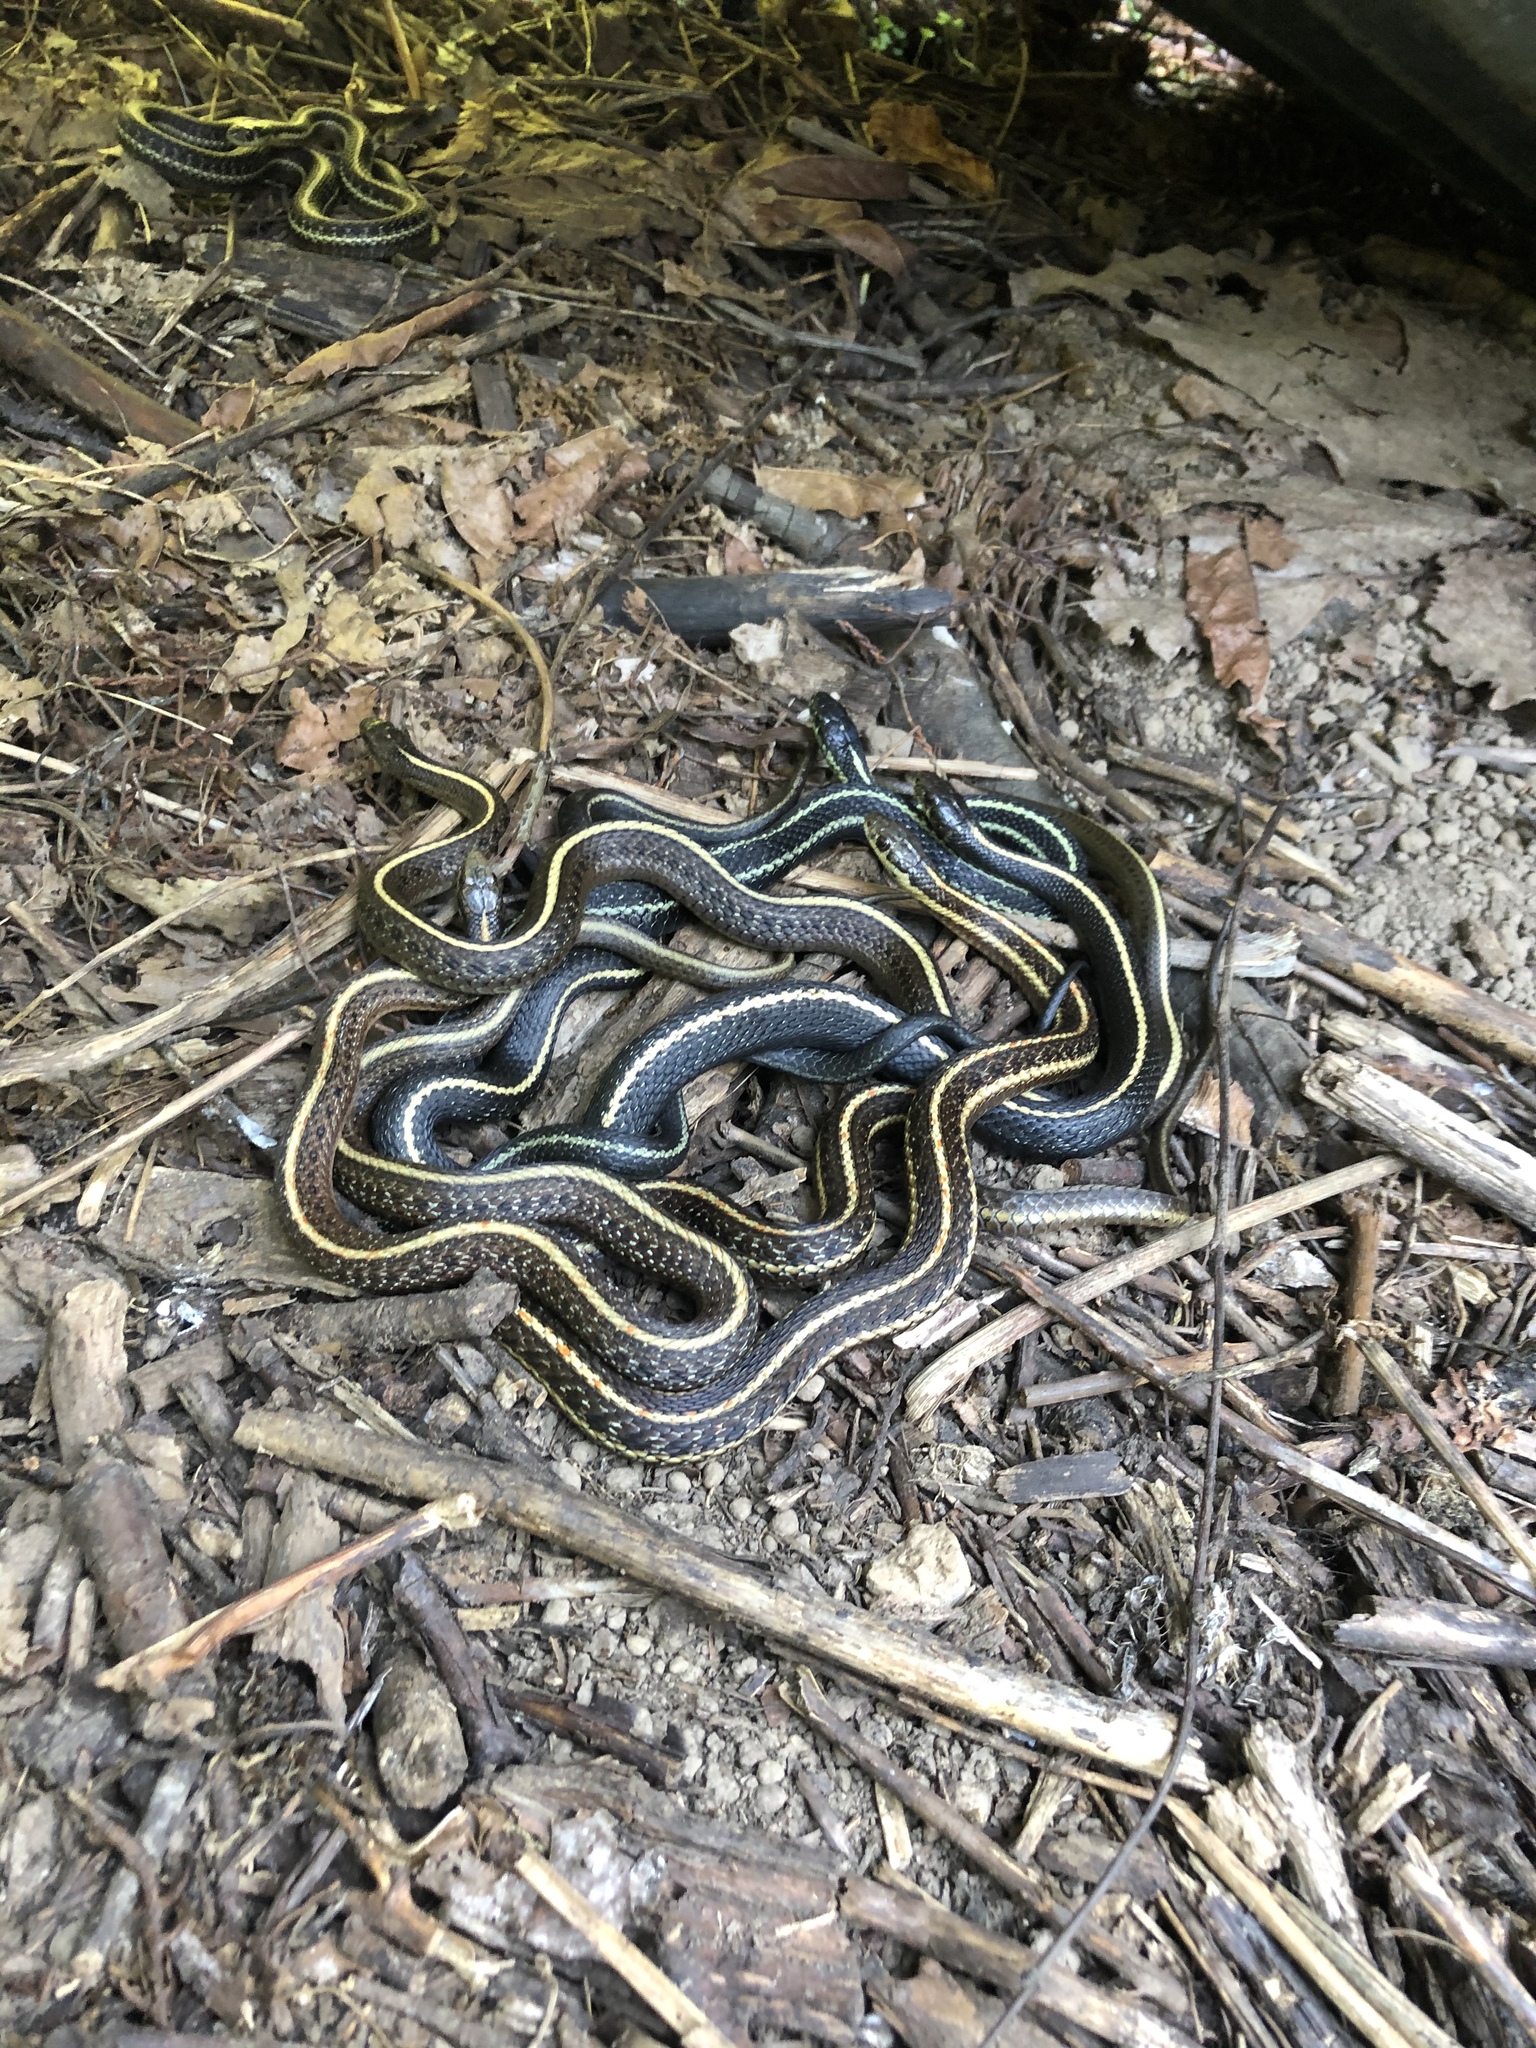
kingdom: Animalia
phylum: Chordata
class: Squamata
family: Colubridae
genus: Thamnophis
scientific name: Thamnophis ordinoides
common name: Northwestern garter snake
